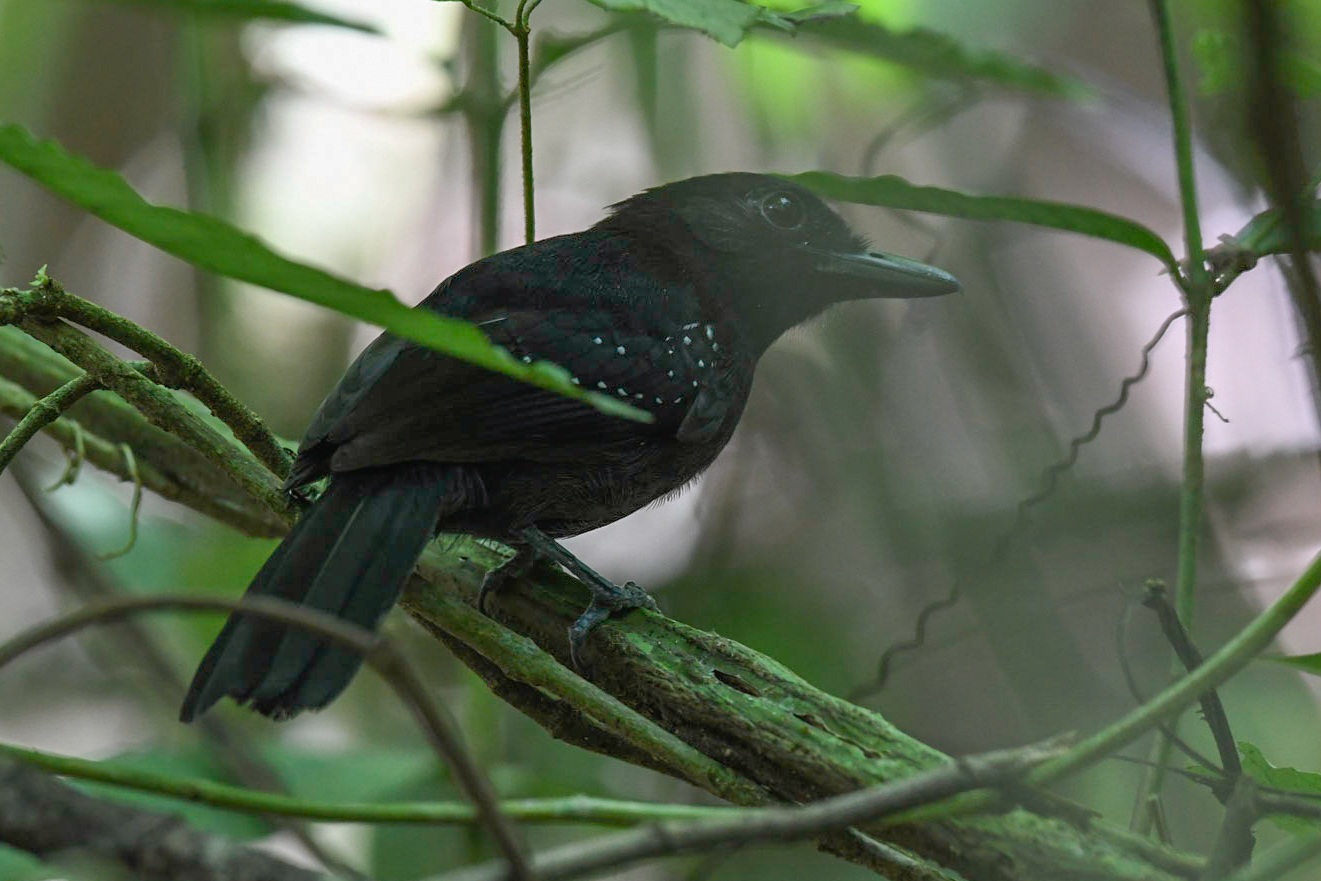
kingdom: Animalia
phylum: Chordata
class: Aves
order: Passeriformes
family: Thamnophilidae
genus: Thamnophilus
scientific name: Thamnophilus bridgesi
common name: Black-hooded antshrike
